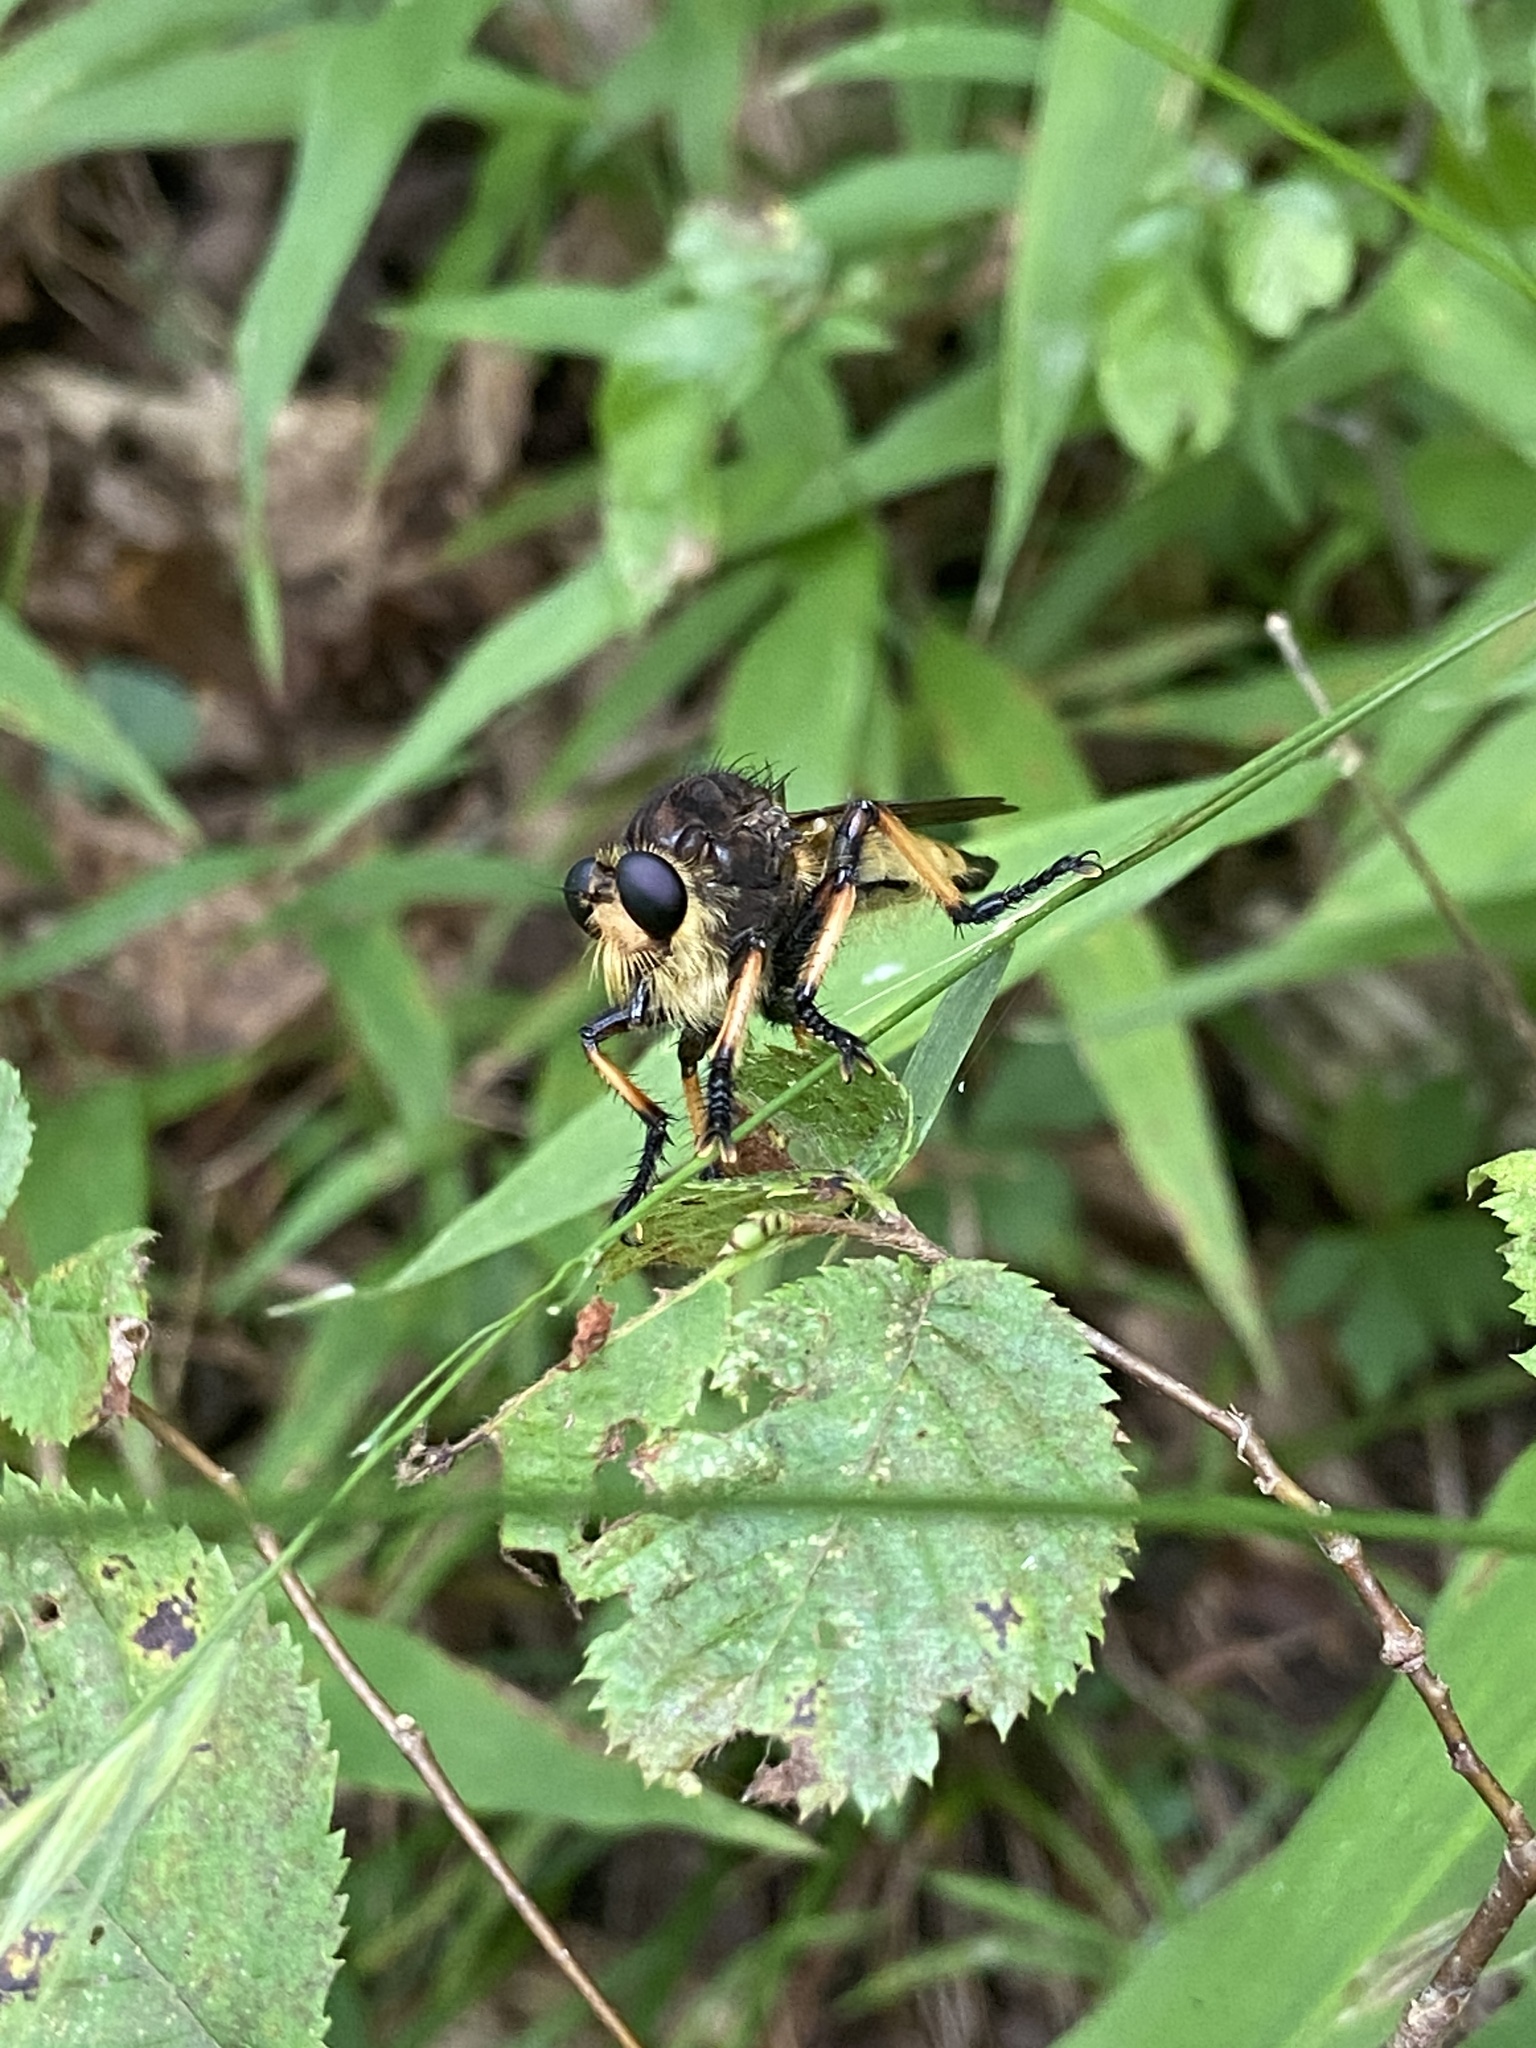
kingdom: Animalia
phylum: Arthropoda
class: Insecta
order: Diptera
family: Asilidae
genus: Promachus
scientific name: Promachus rufipes
